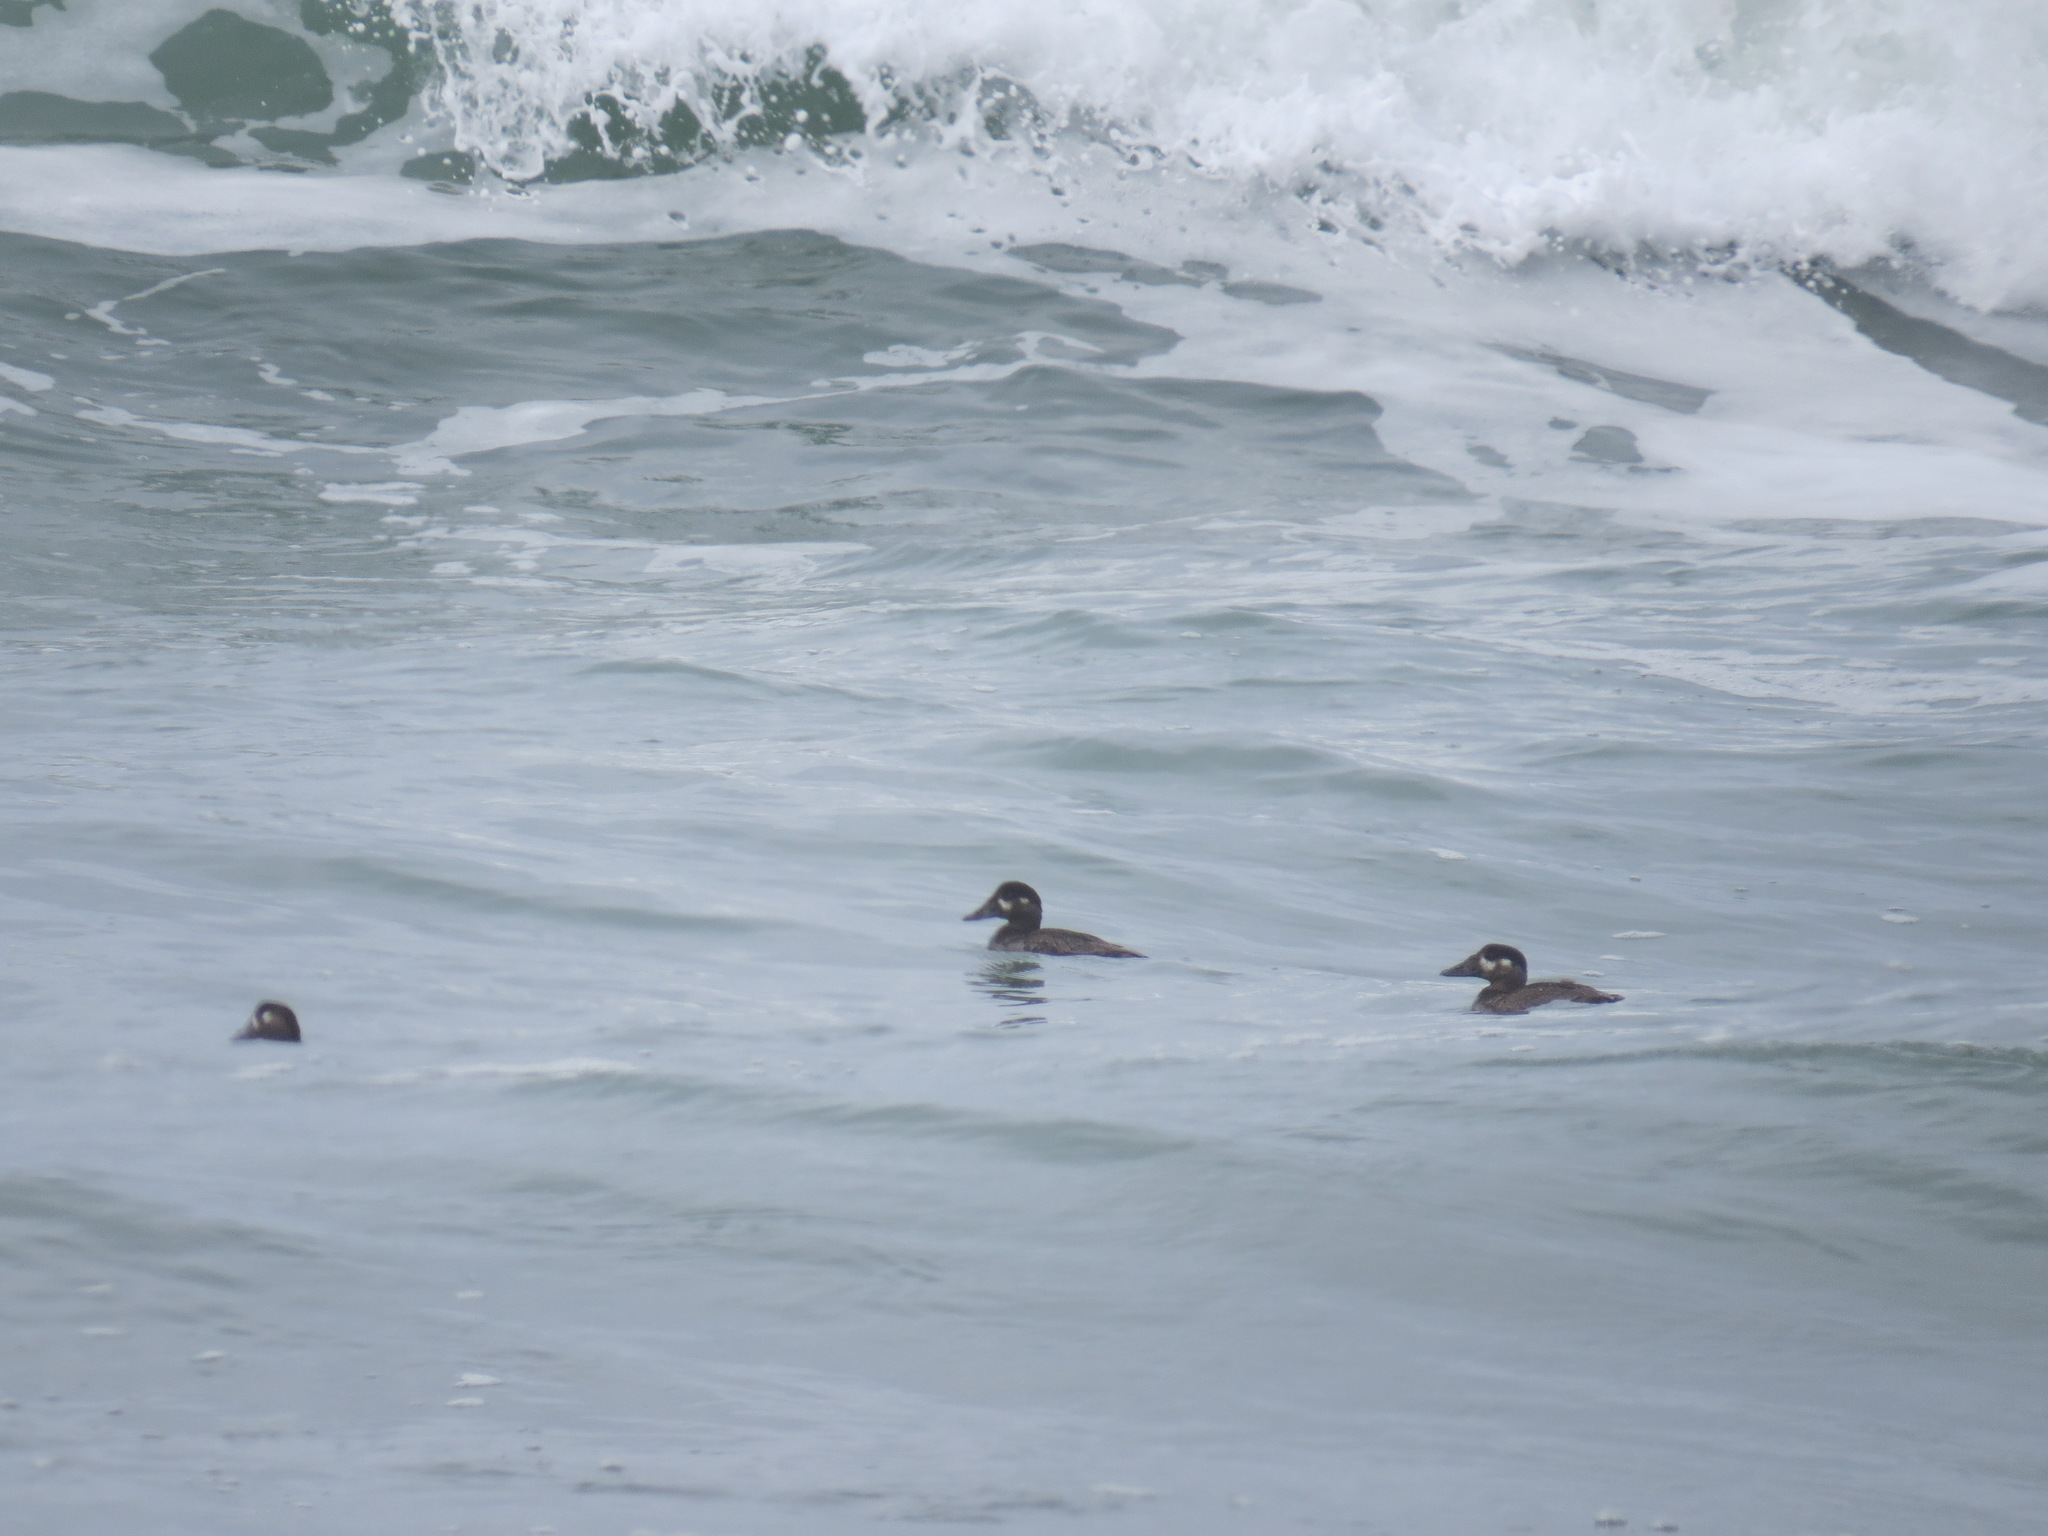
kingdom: Animalia
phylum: Chordata
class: Aves
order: Anseriformes
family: Anatidae
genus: Melanitta
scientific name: Melanitta perspicillata
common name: Surf scoter
